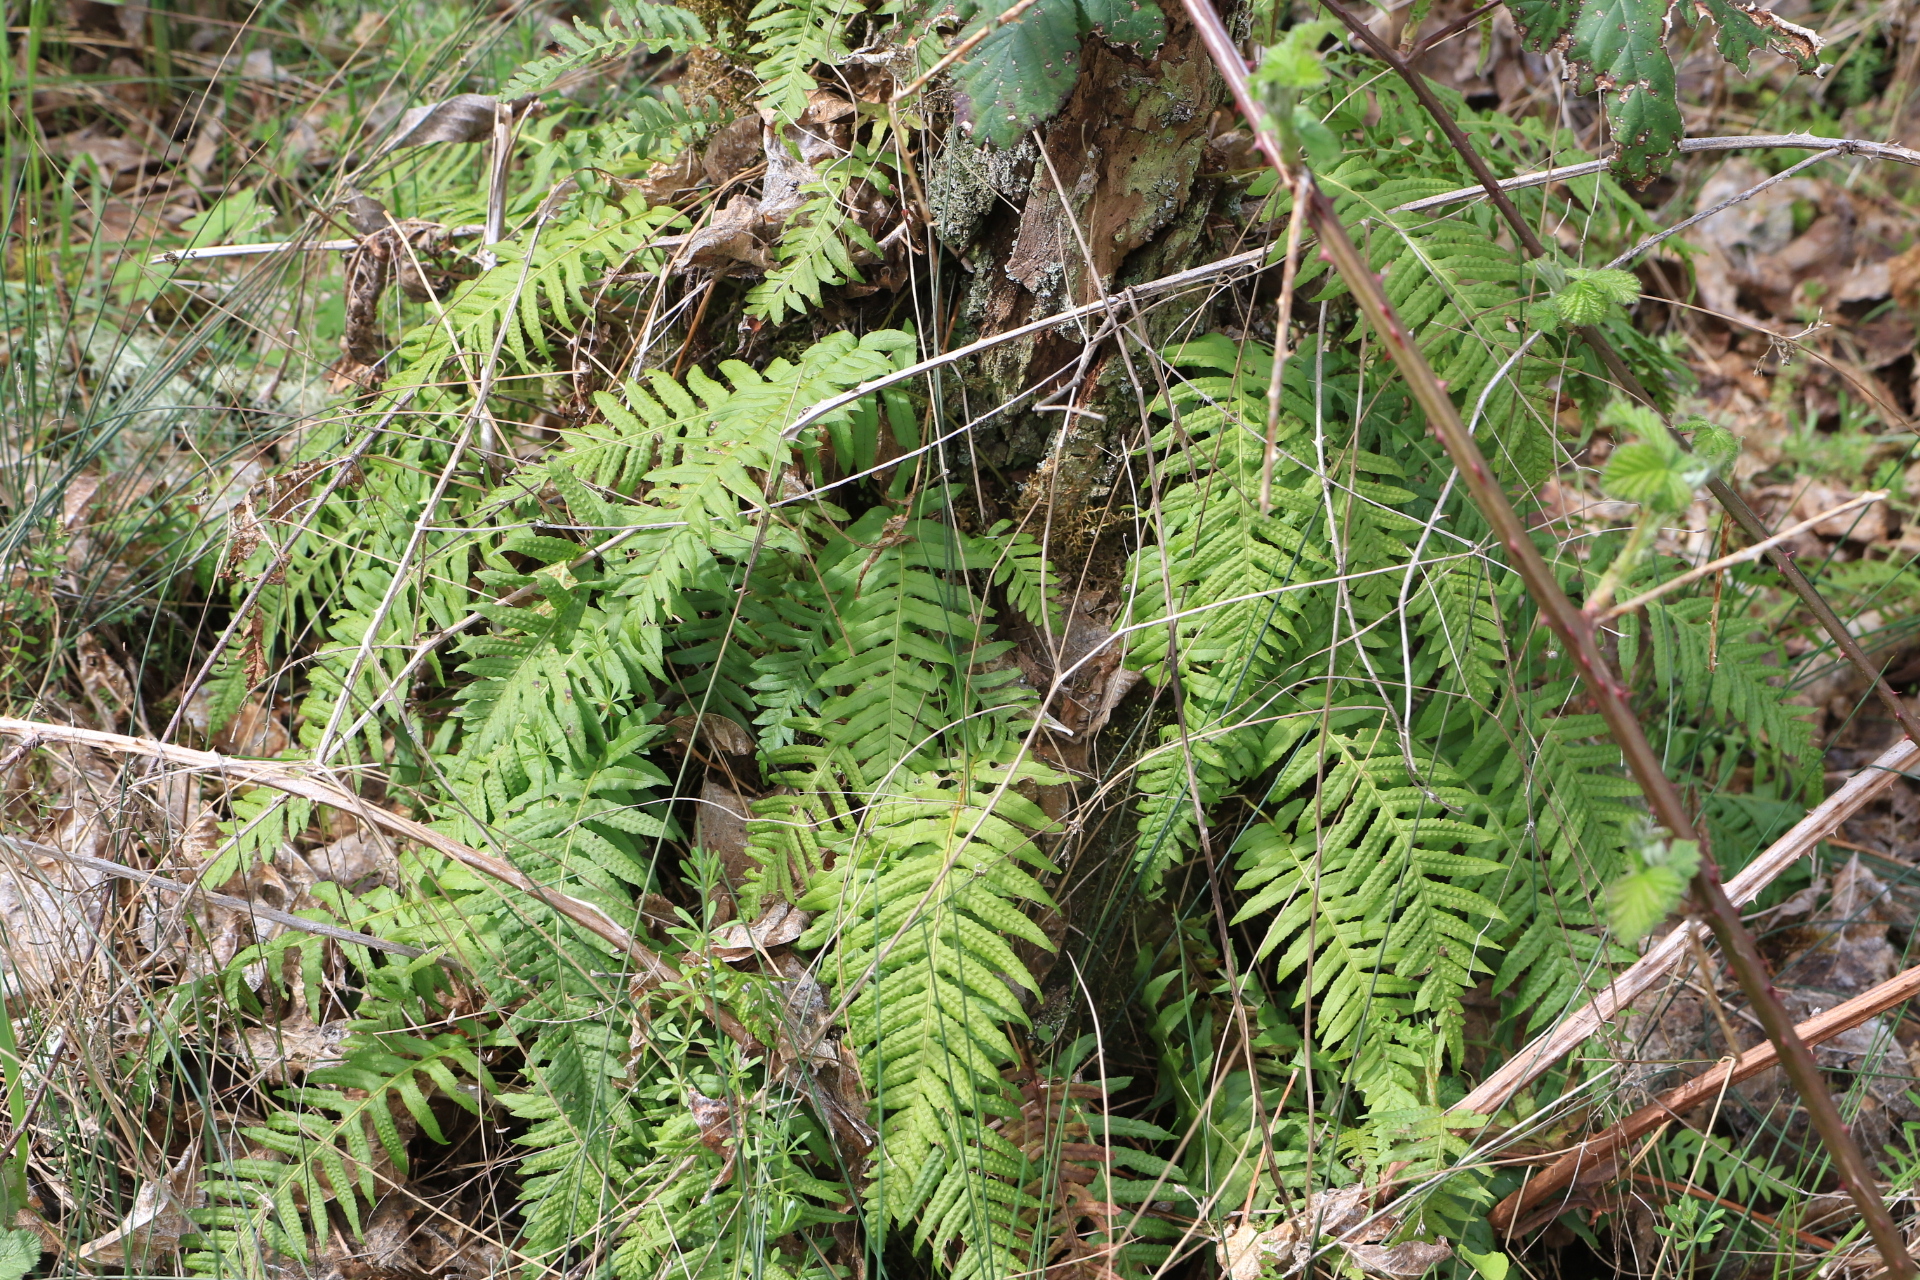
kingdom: Plantae
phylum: Tracheophyta
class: Polypodiopsida
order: Polypodiales
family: Polypodiaceae
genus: Polypodium
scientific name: Polypodium glycyrrhiza
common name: Licorice fern
